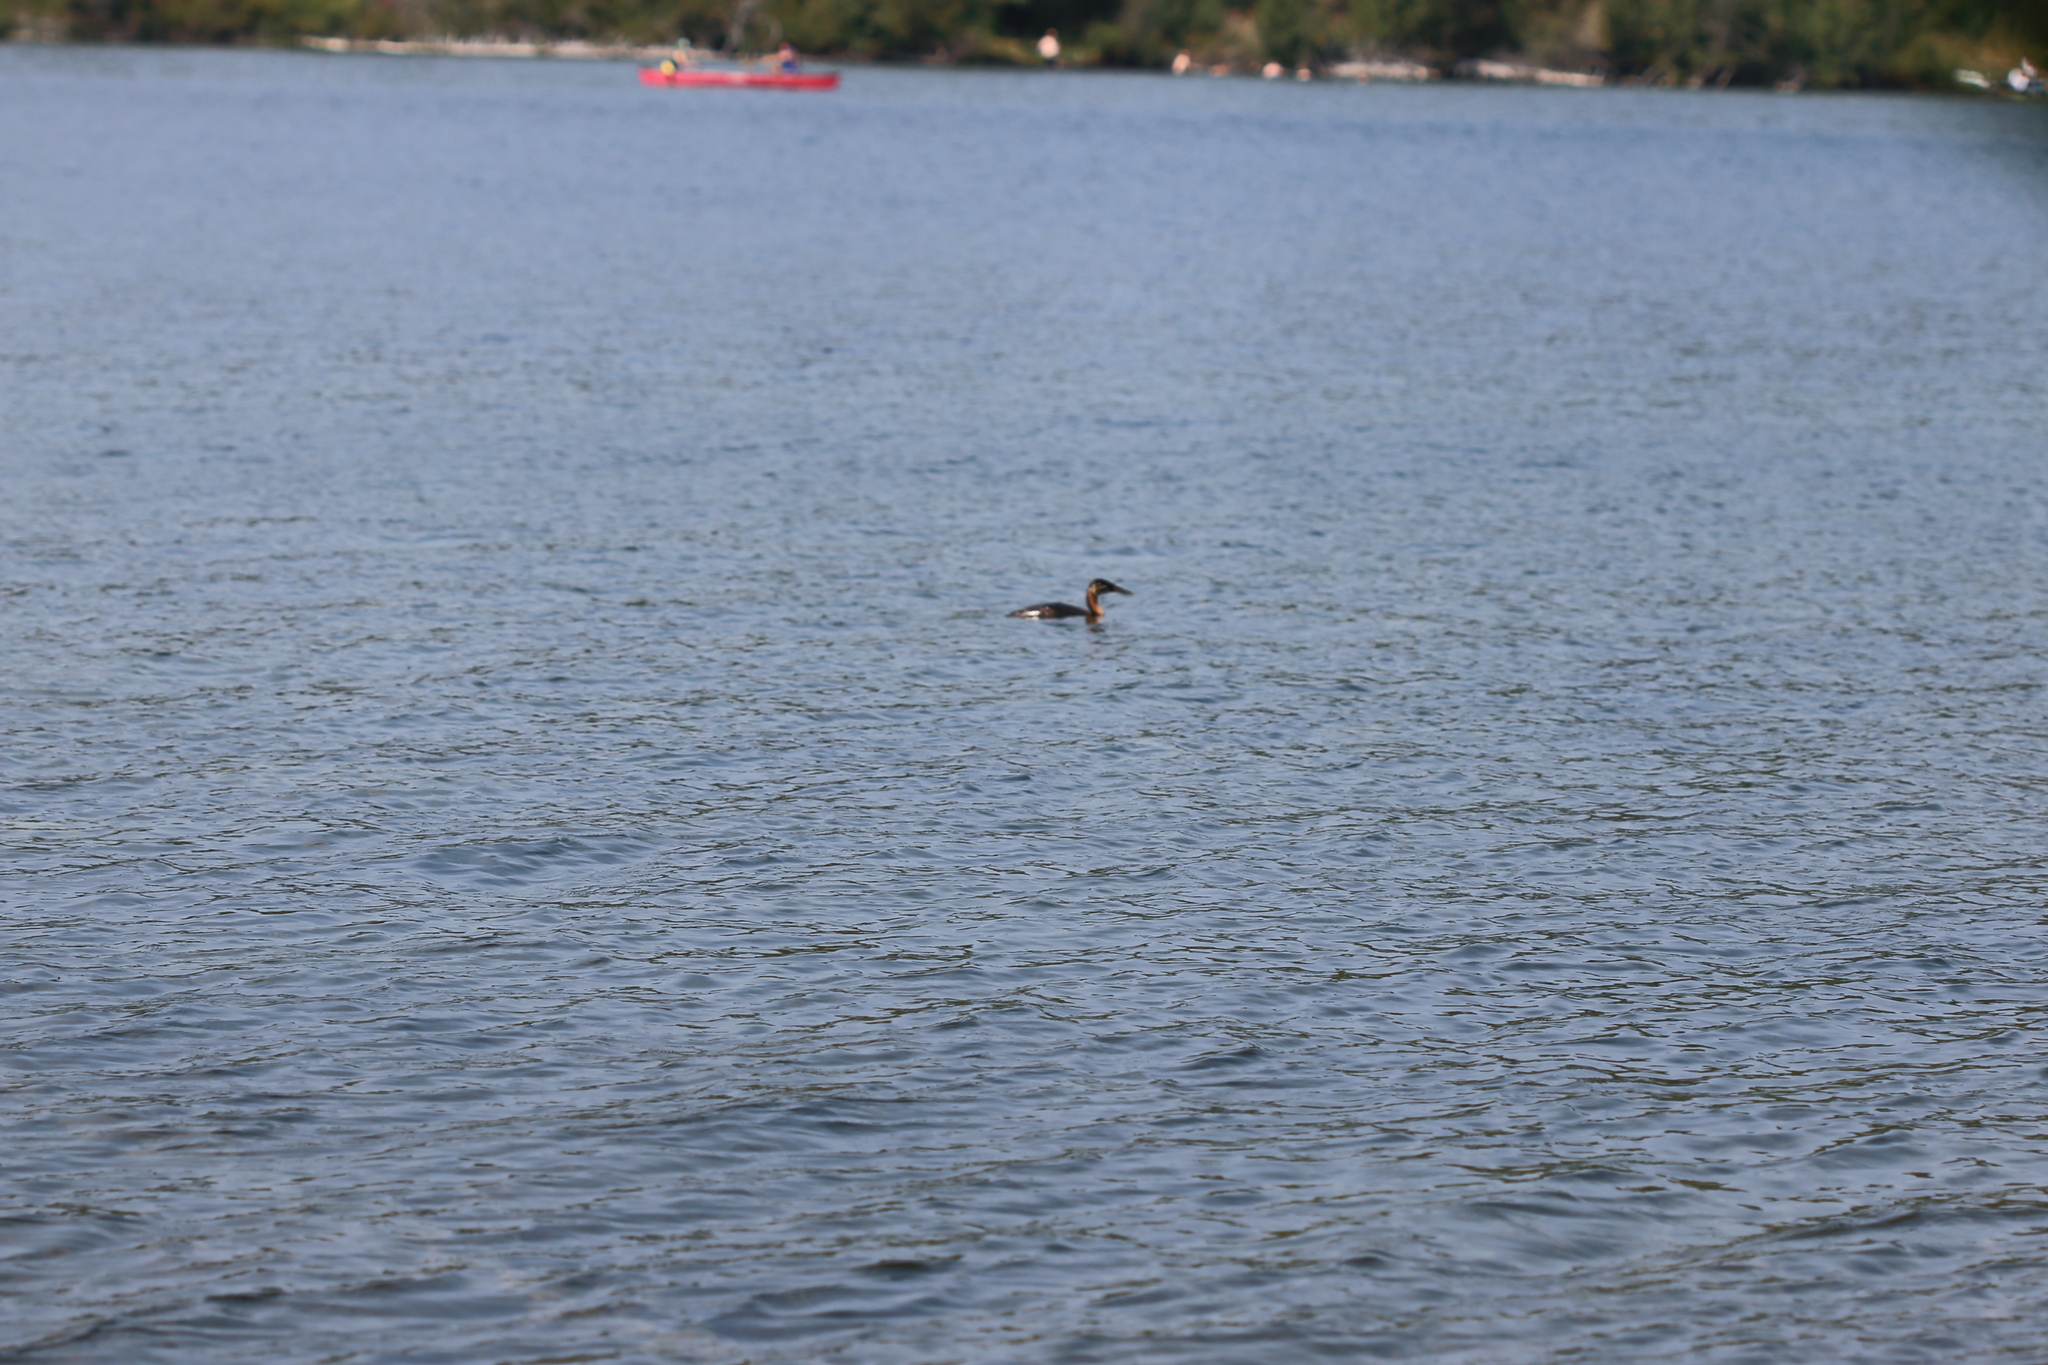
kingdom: Animalia
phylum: Chordata
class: Aves
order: Podicipediformes
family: Podicipedidae
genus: Podiceps
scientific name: Podiceps grisegena
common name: Red-necked grebe
